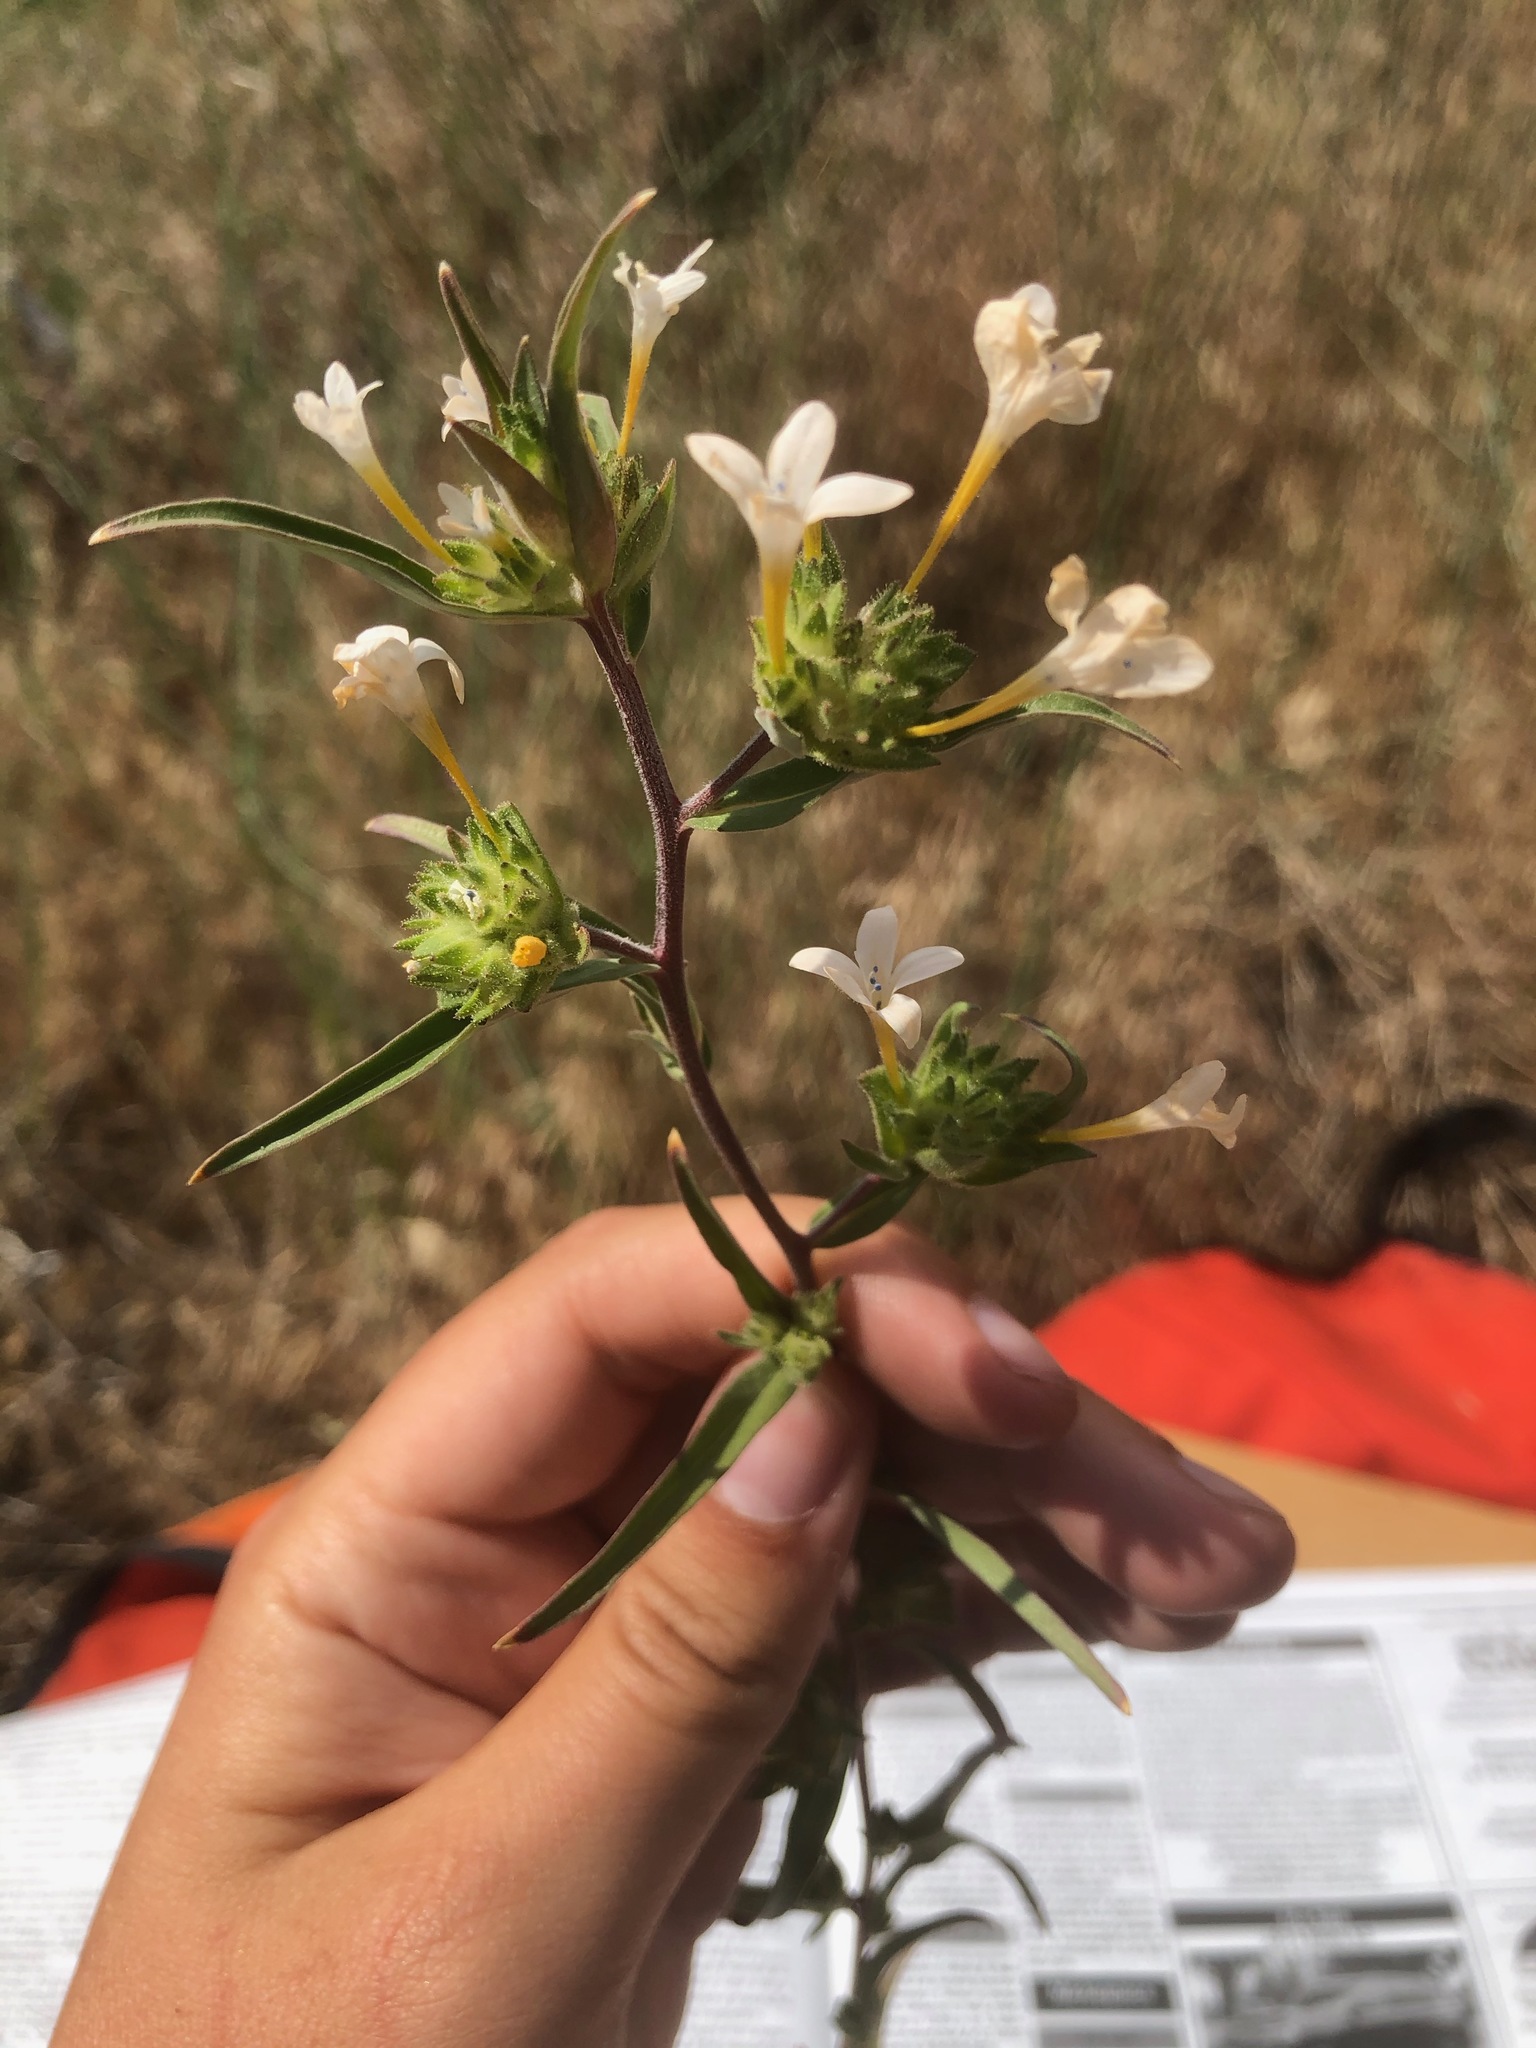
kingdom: Plantae
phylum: Tracheophyta
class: Magnoliopsida
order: Ericales
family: Polemoniaceae
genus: Collomia
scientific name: Collomia grandiflora
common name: California strawflower
